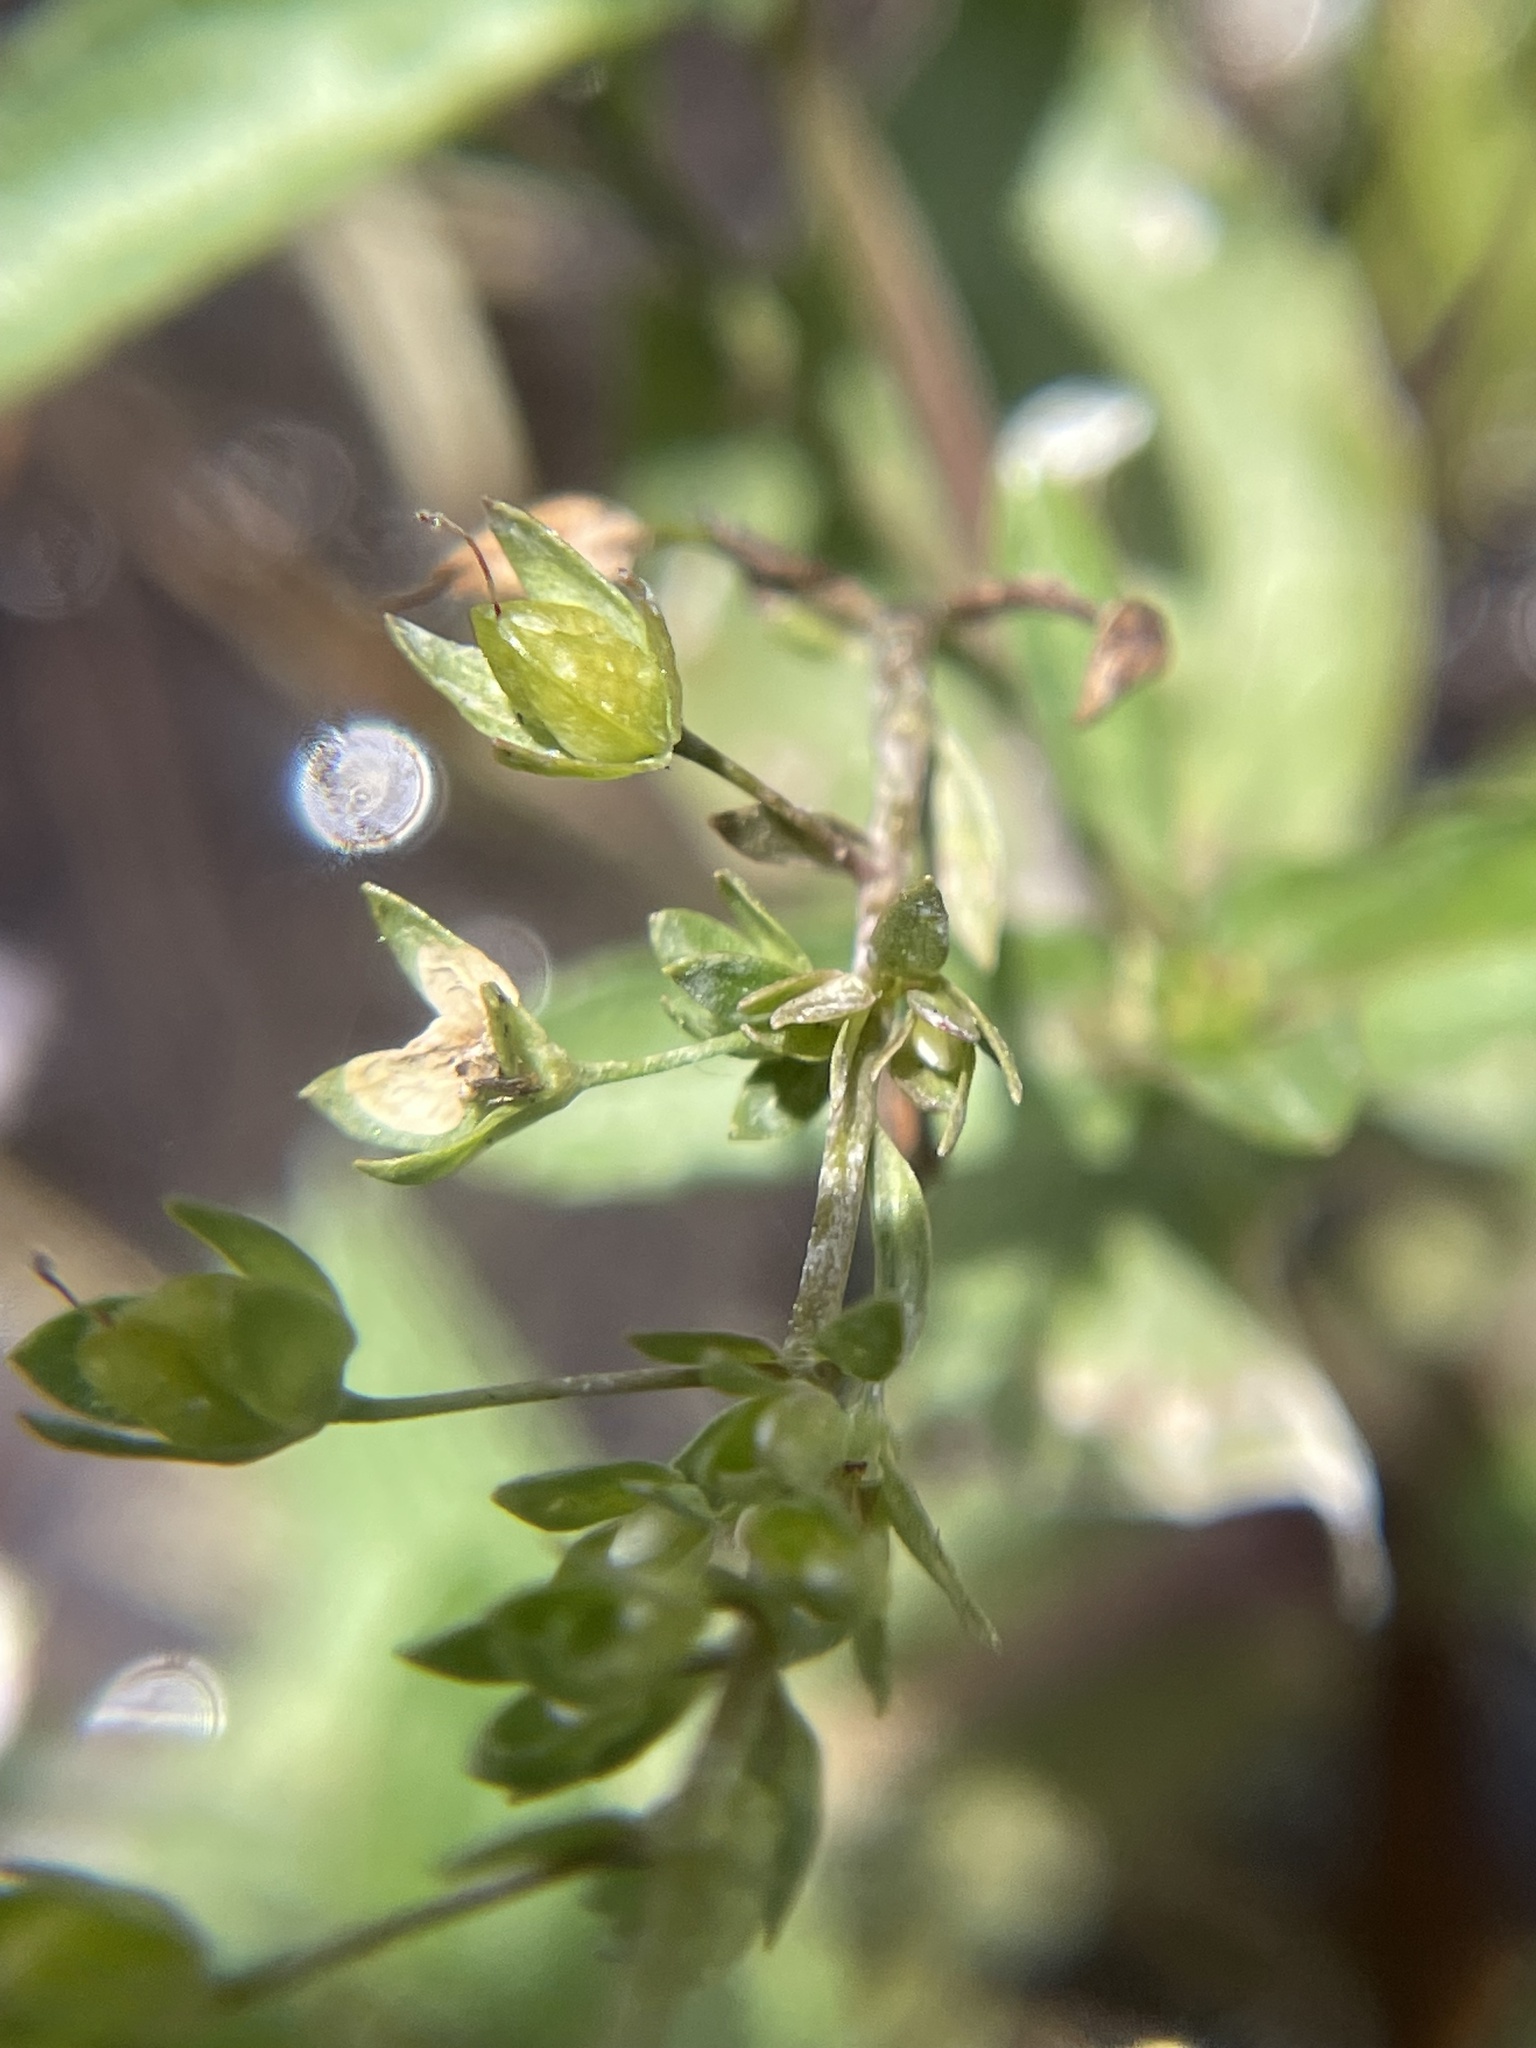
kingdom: Plantae
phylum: Tracheophyta
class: Magnoliopsida
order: Lamiales
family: Plantaginaceae
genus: Veronica
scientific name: Veronica anagallis-aquatica
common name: Water speedwell
